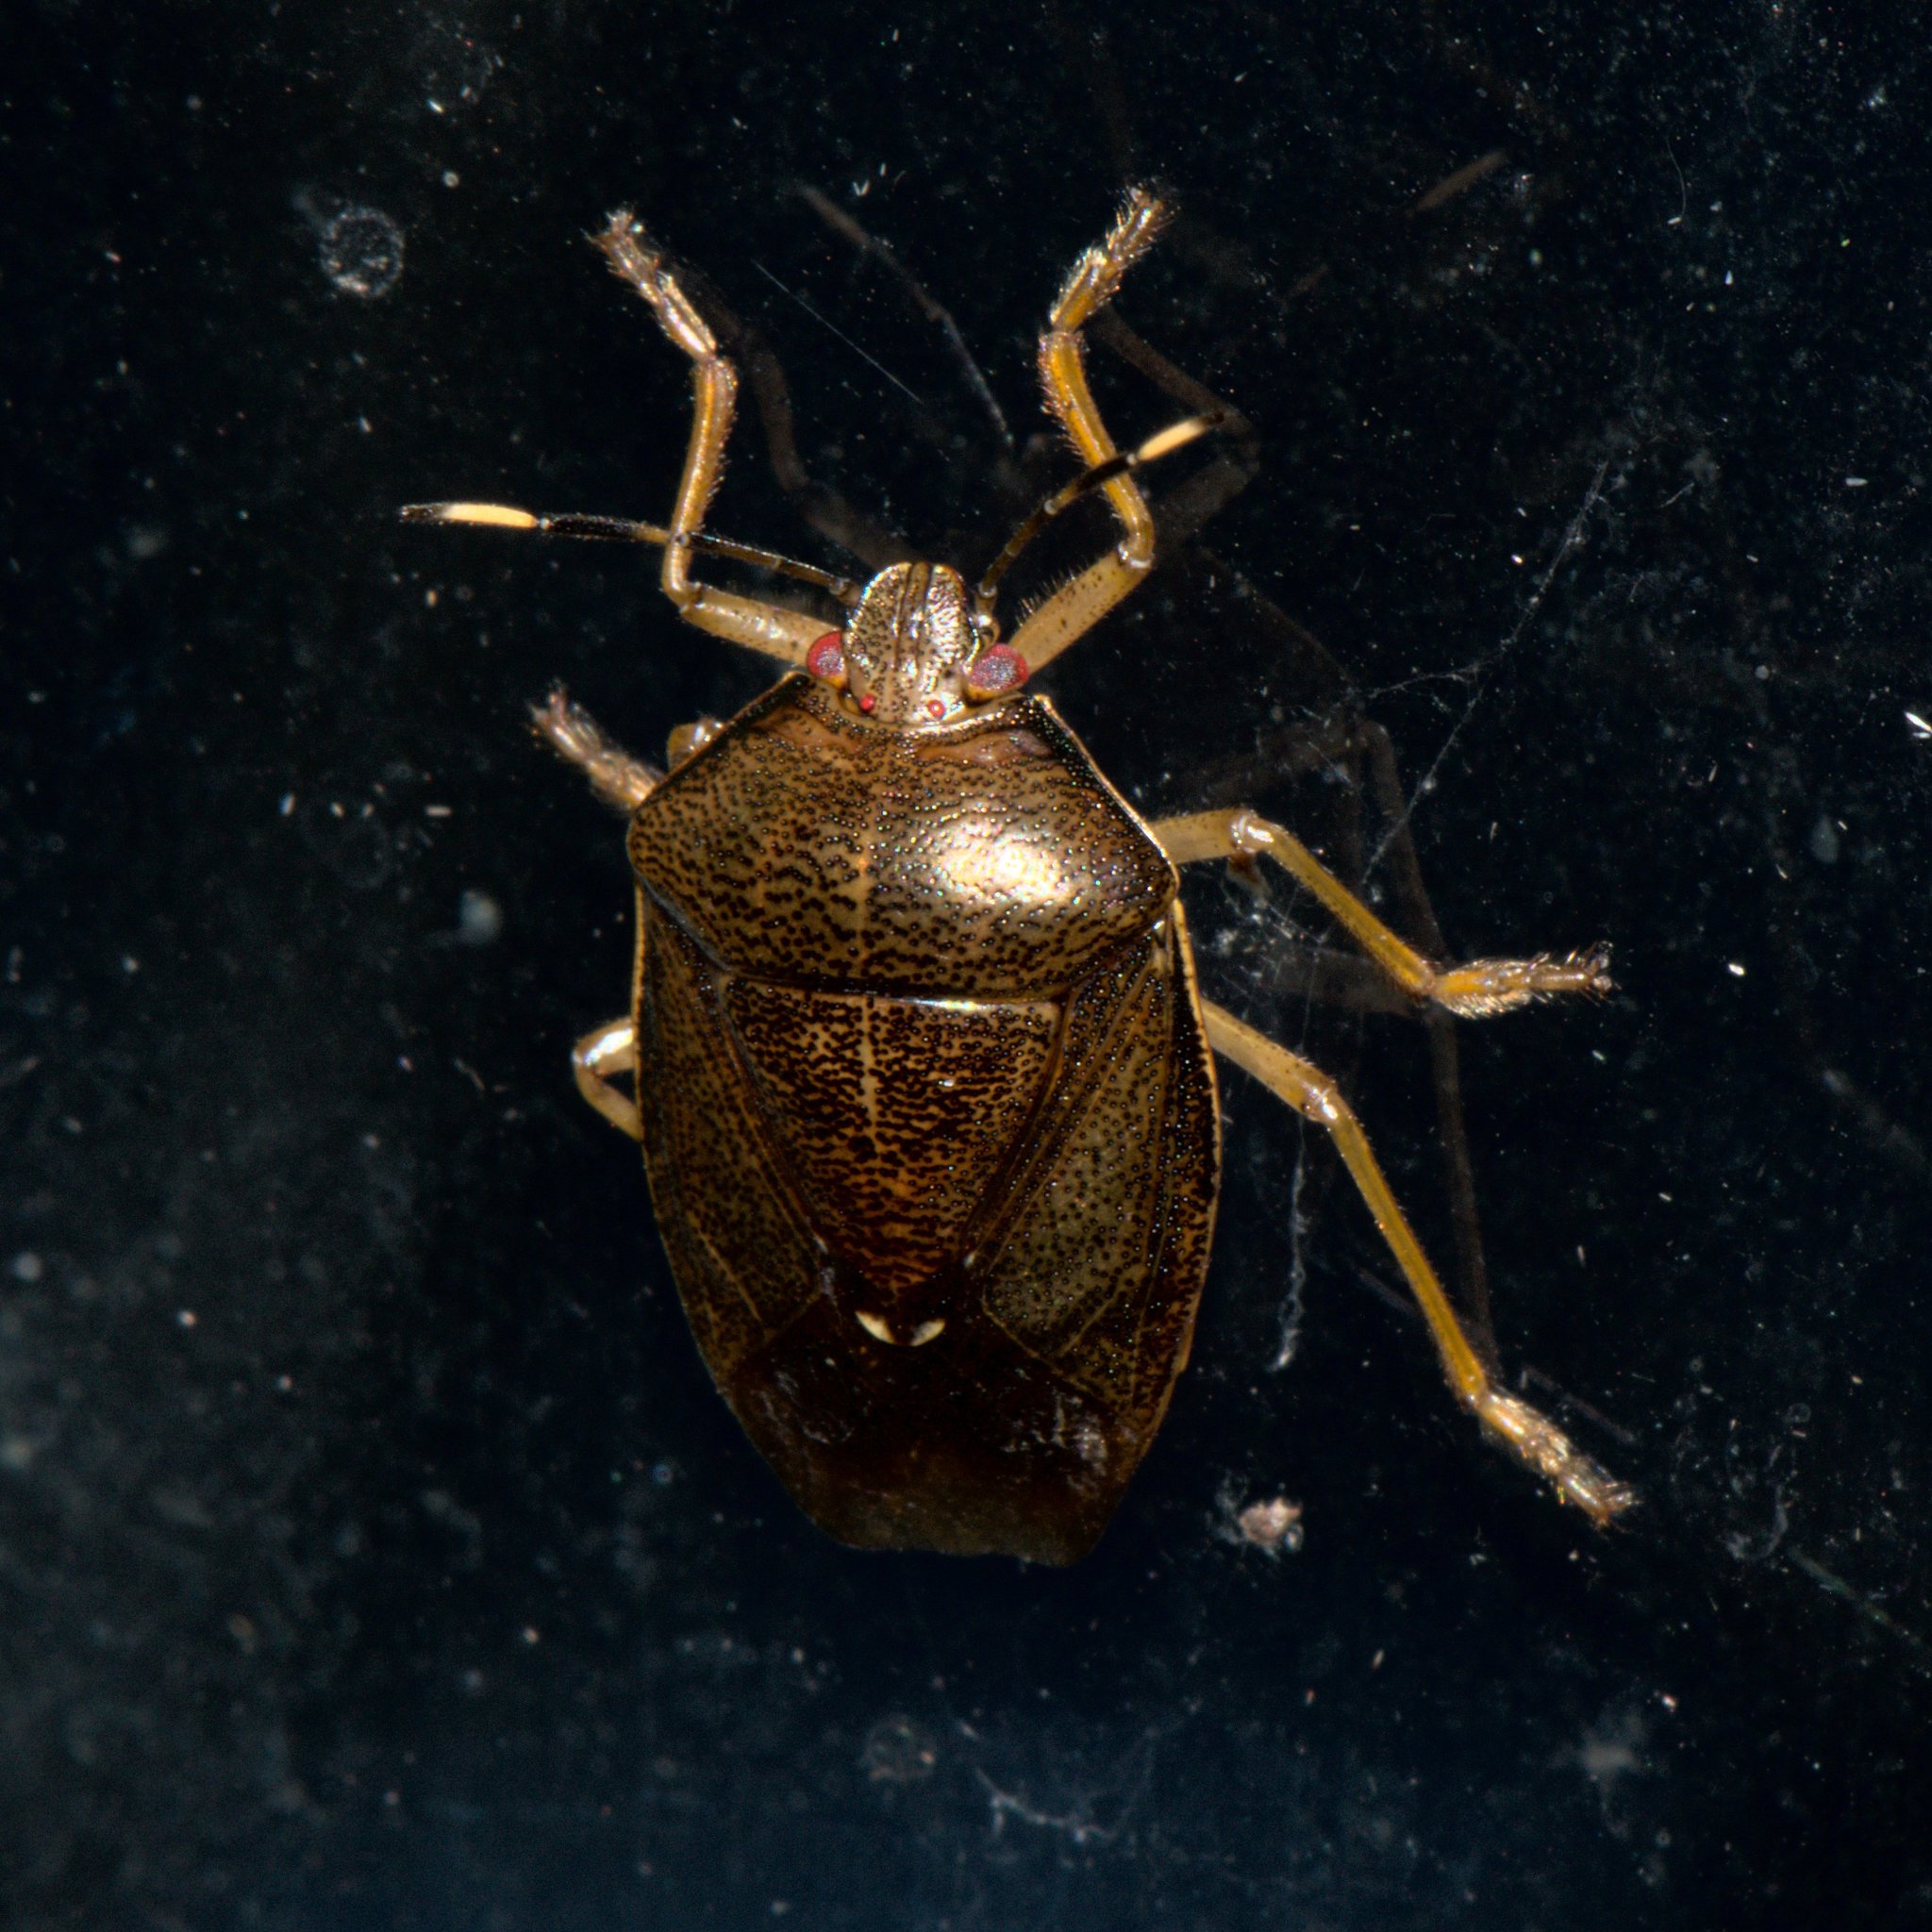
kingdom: Animalia
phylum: Arthropoda
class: Insecta
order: Hemiptera
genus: Phavorinus
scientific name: Phavorinus
